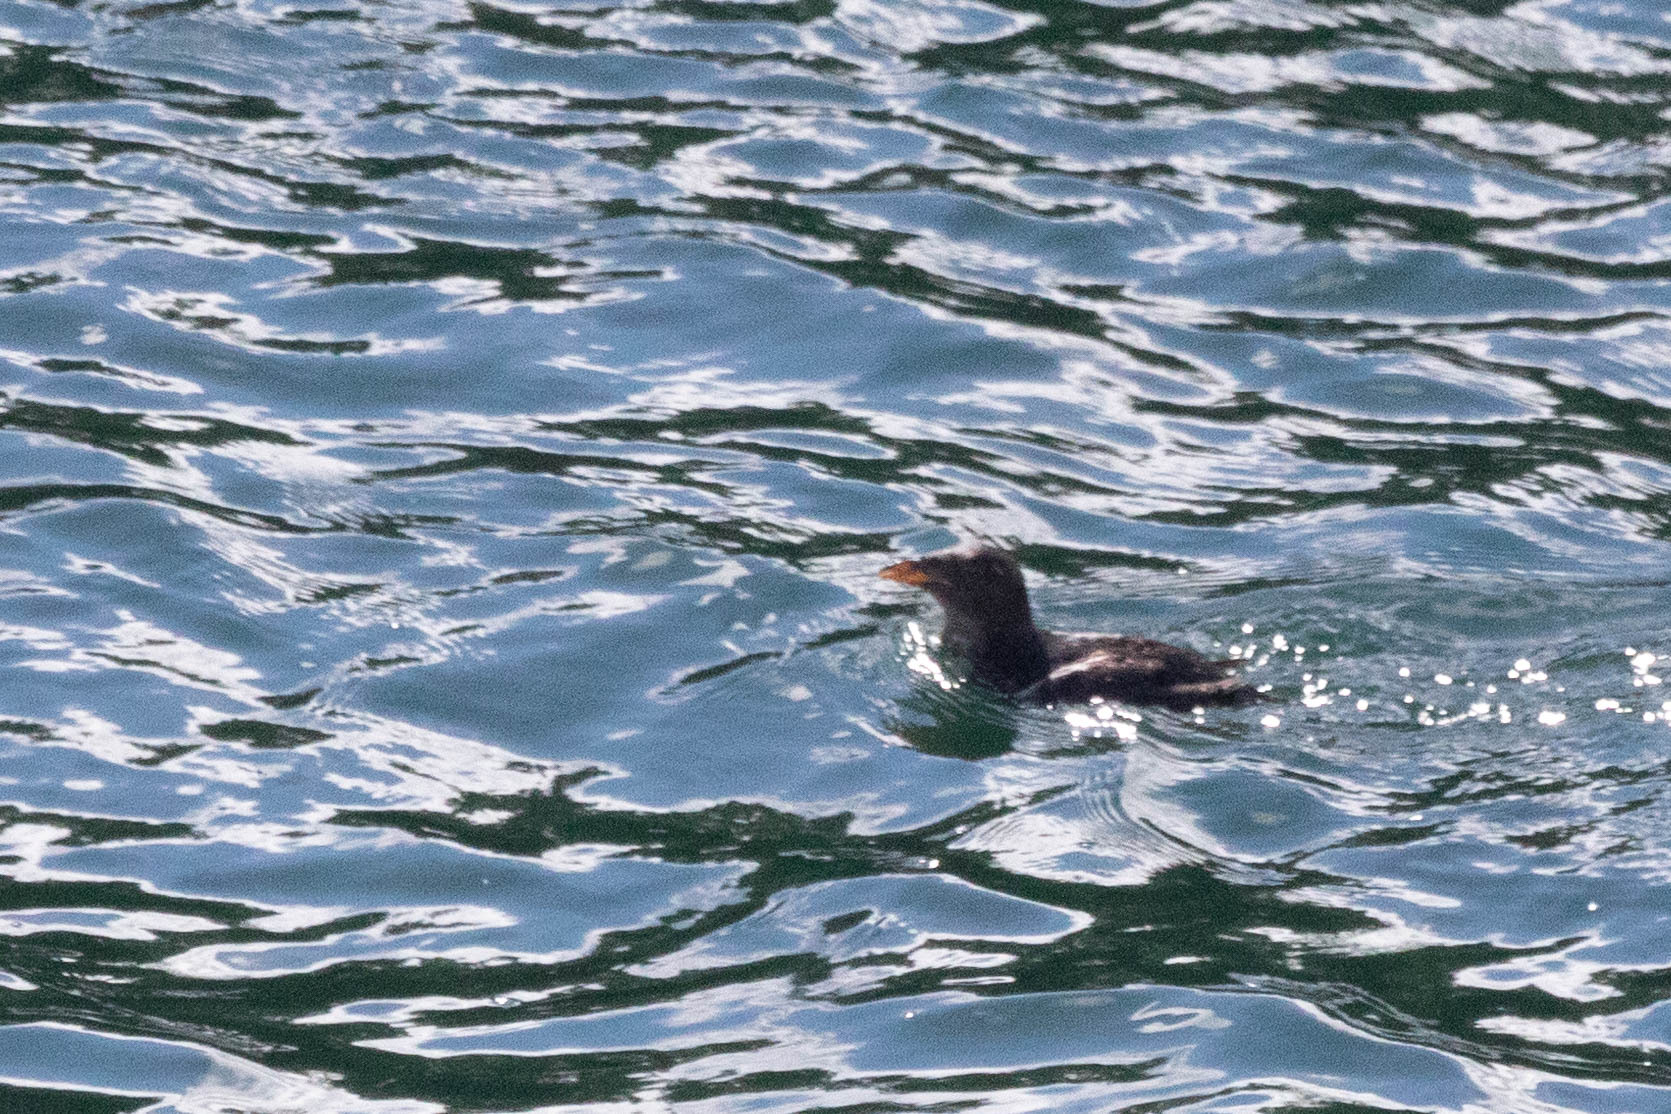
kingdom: Animalia
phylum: Chordata
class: Aves
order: Charadriiformes
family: Alcidae
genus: Cerorhinca
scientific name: Cerorhinca monocerata
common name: Rhinoceros auklet
